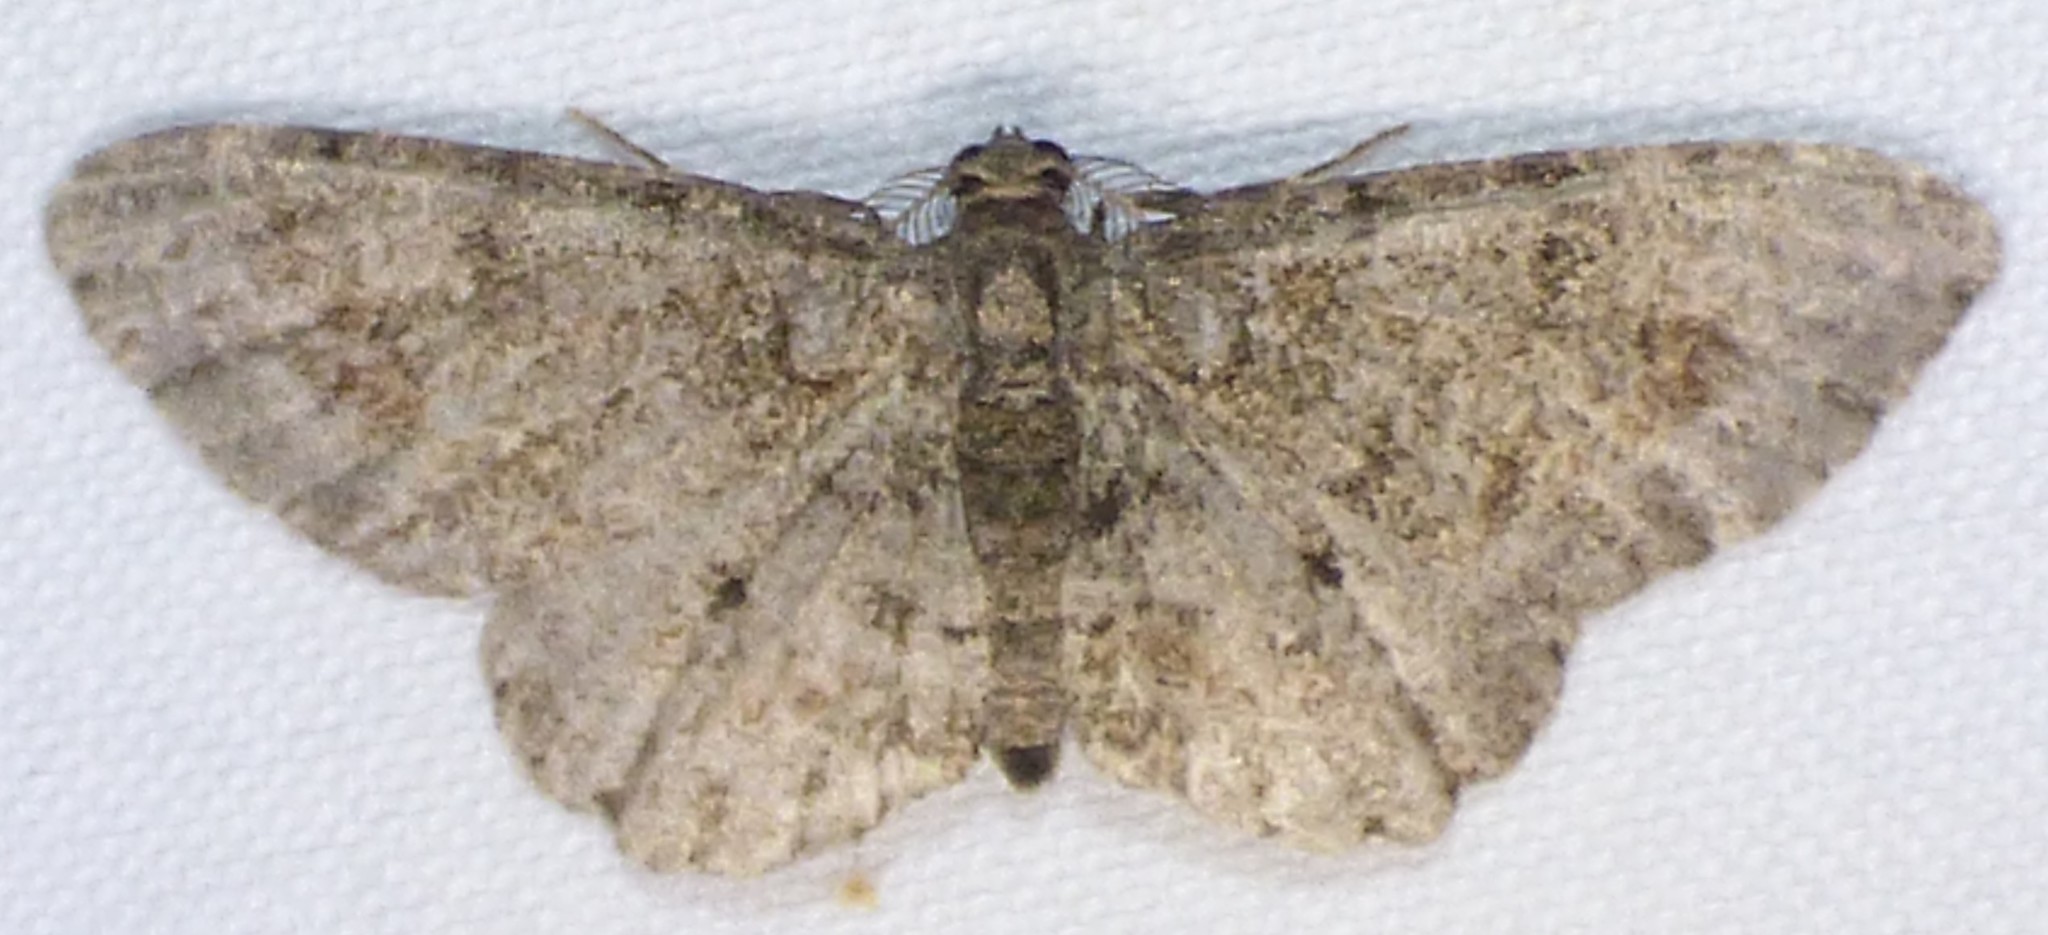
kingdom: Animalia
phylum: Arthropoda
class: Insecta
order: Lepidoptera
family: Geometridae
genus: Glenoides
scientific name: Glenoides texanaria
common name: Texas gray
